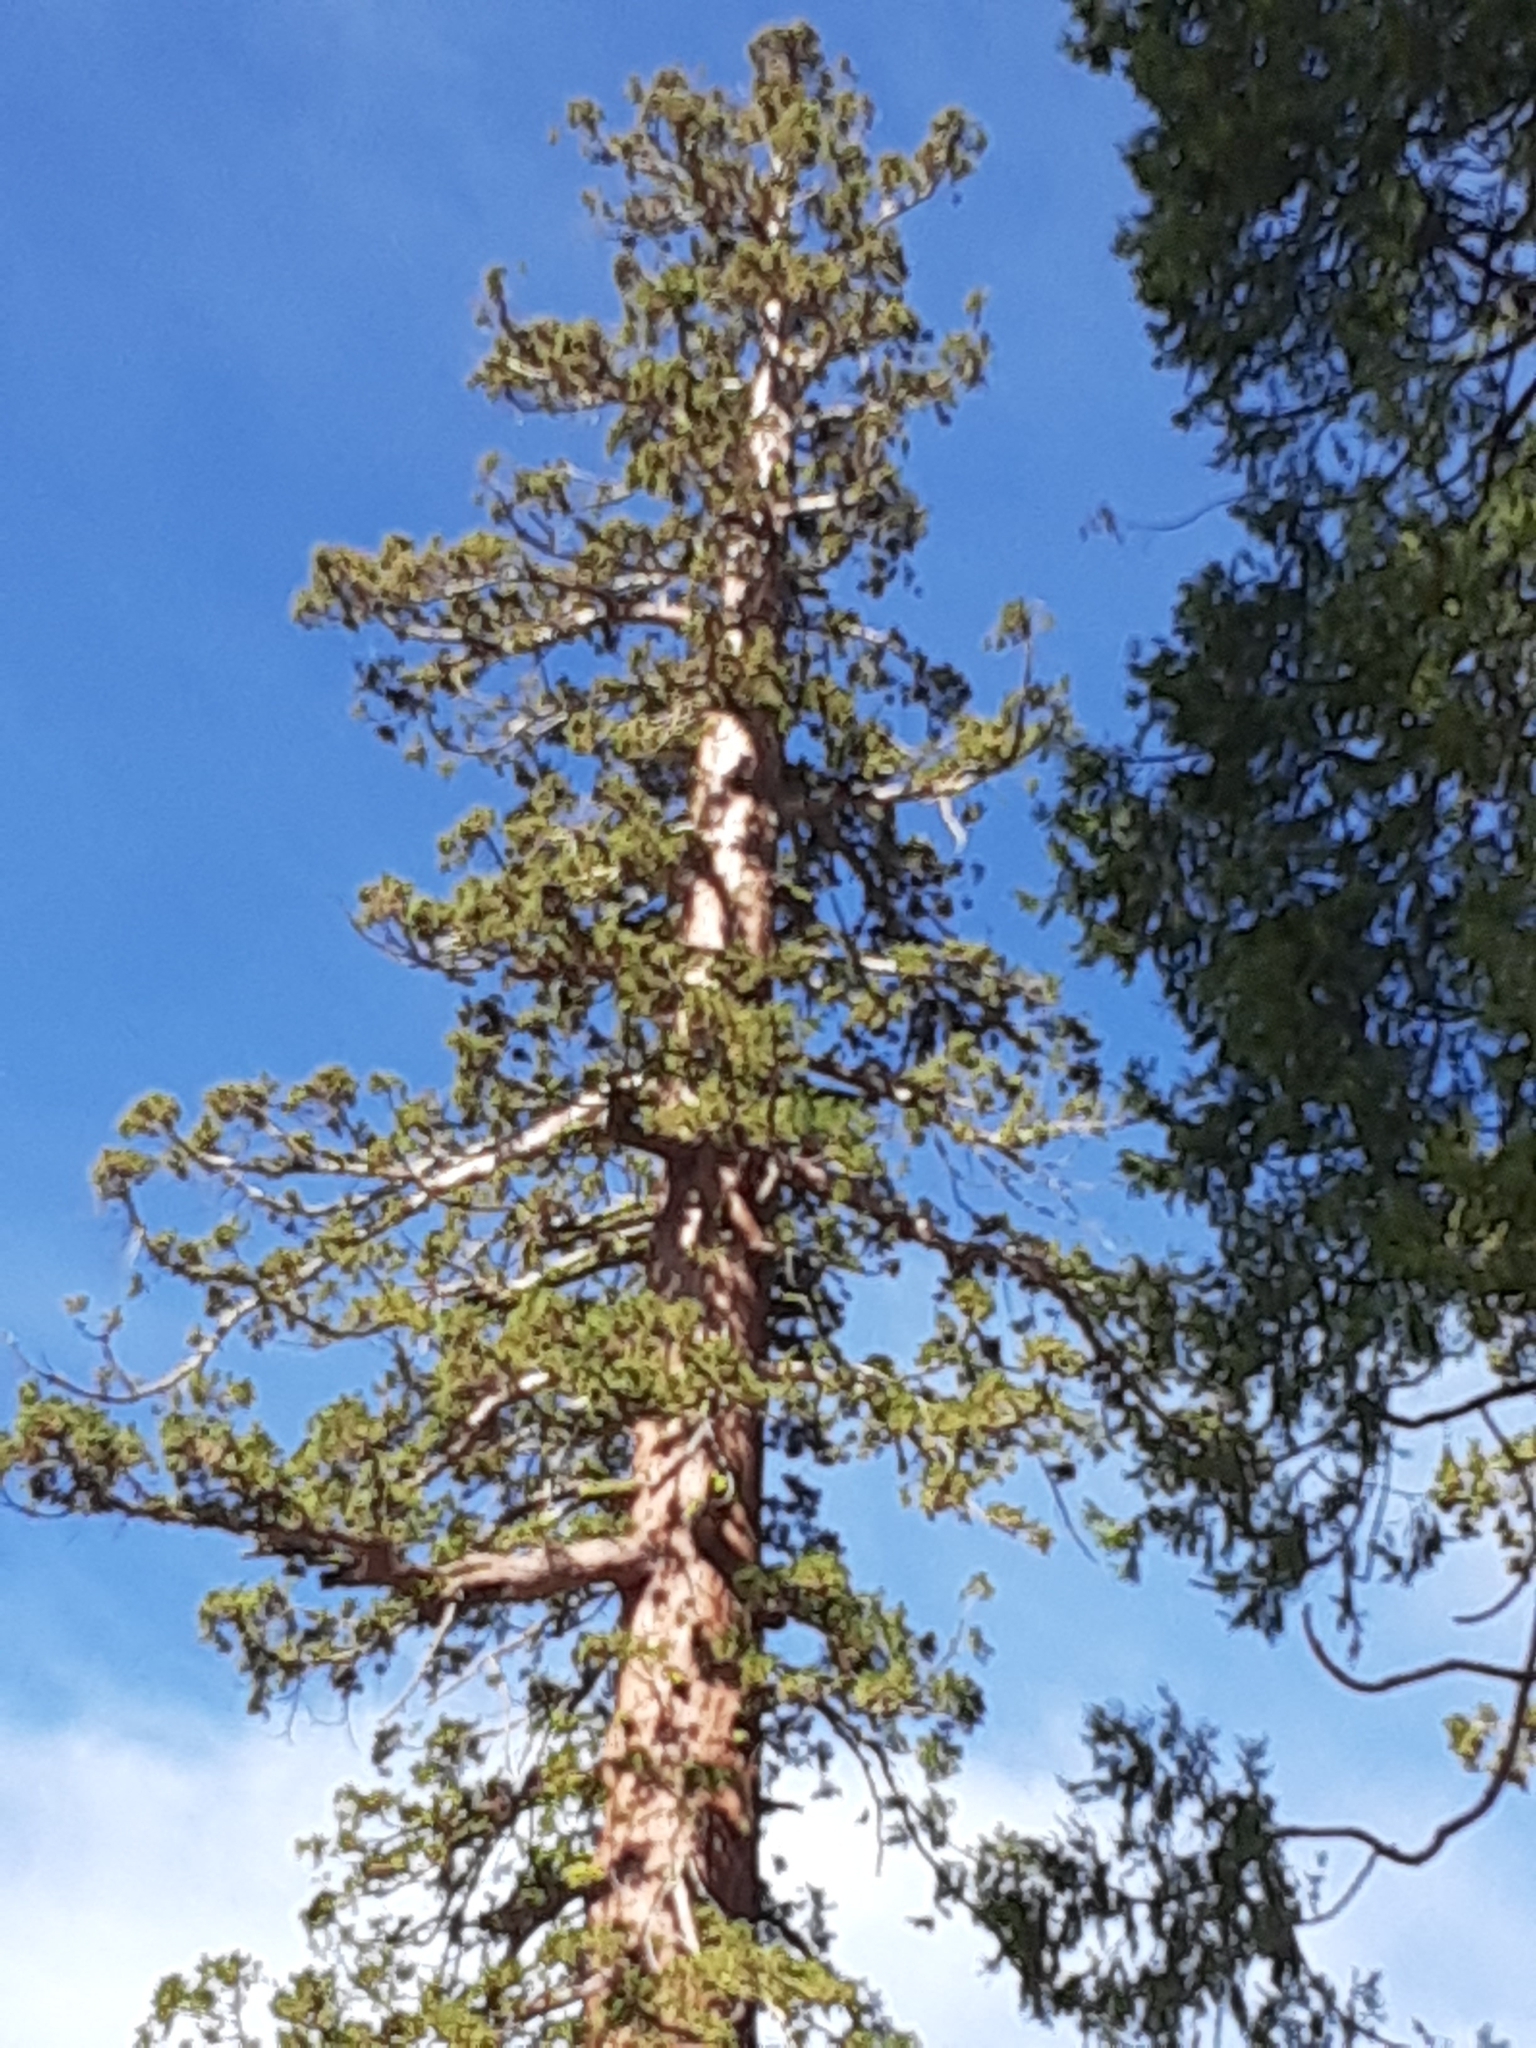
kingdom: Plantae
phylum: Tracheophyta
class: Pinopsida
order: Pinales
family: Cupressaceae
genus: Sequoiadendron
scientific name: Sequoiadendron giganteum
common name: Wellingtonia
